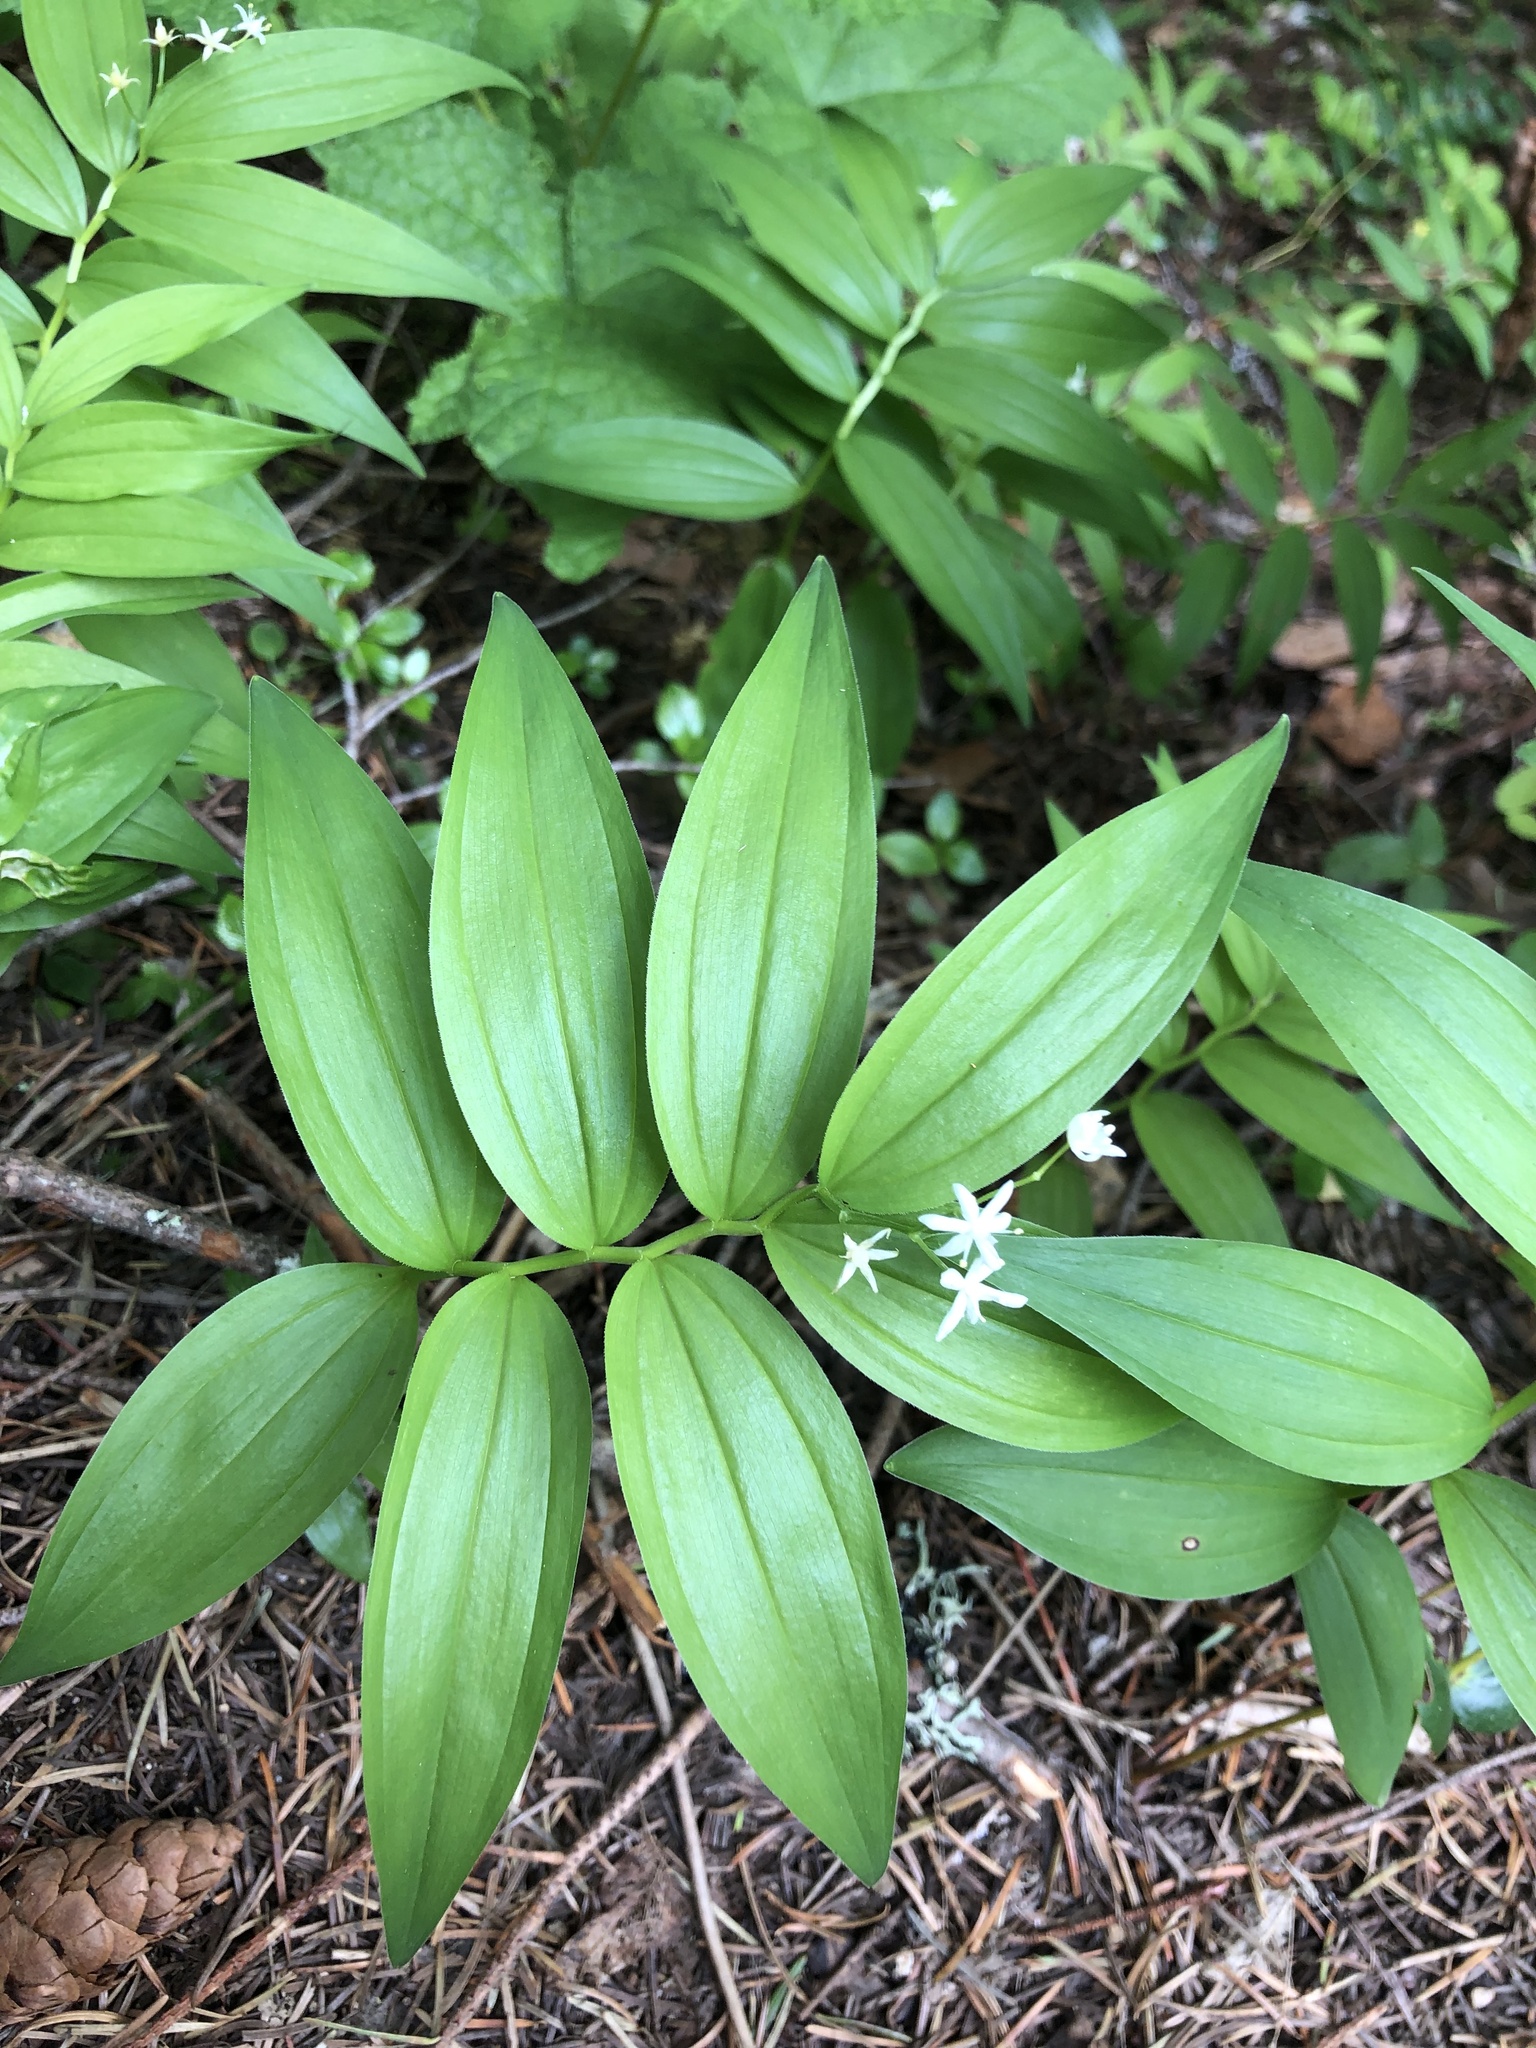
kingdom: Plantae
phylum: Tracheophyta
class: Liliopsida
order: Asparagales
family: Asparagaceae
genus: Maianthemum
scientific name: Maianthemum stellatum
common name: Little false solomon's seal
